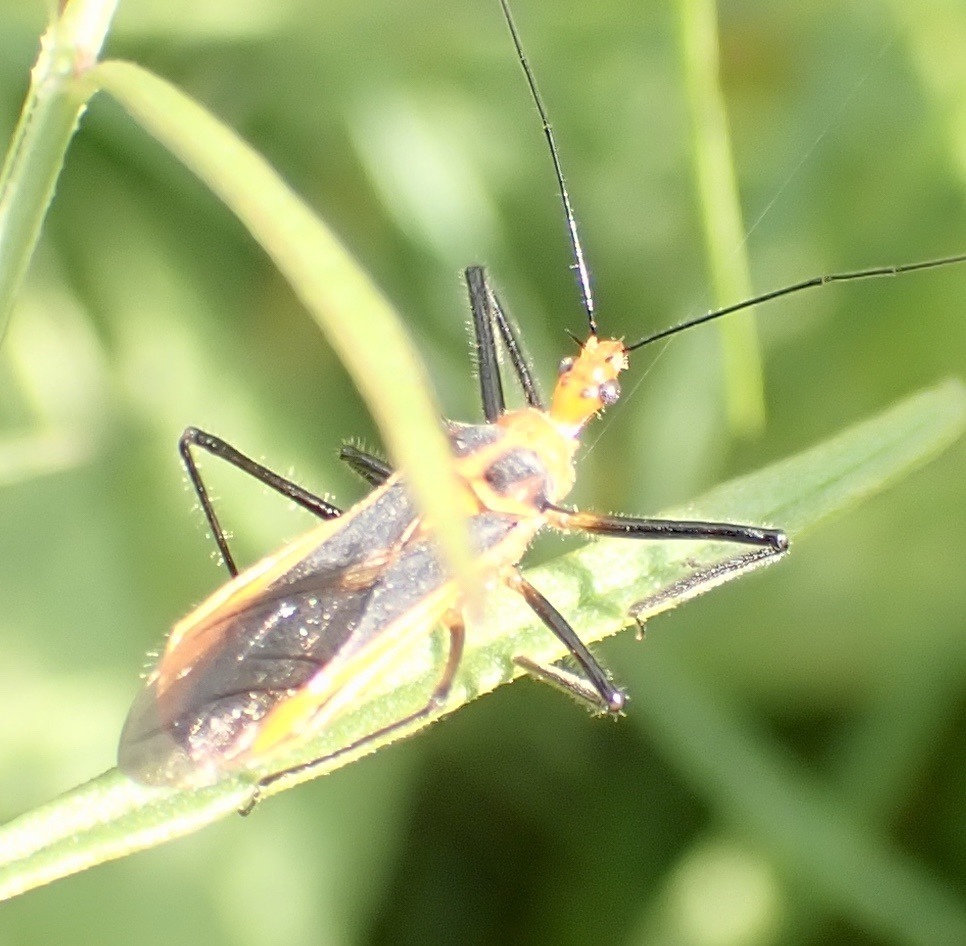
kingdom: Animalia
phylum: Arthropoda
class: Insecta
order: Hemiptera
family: Reduviidae
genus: Repipta
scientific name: Repipta taurus
